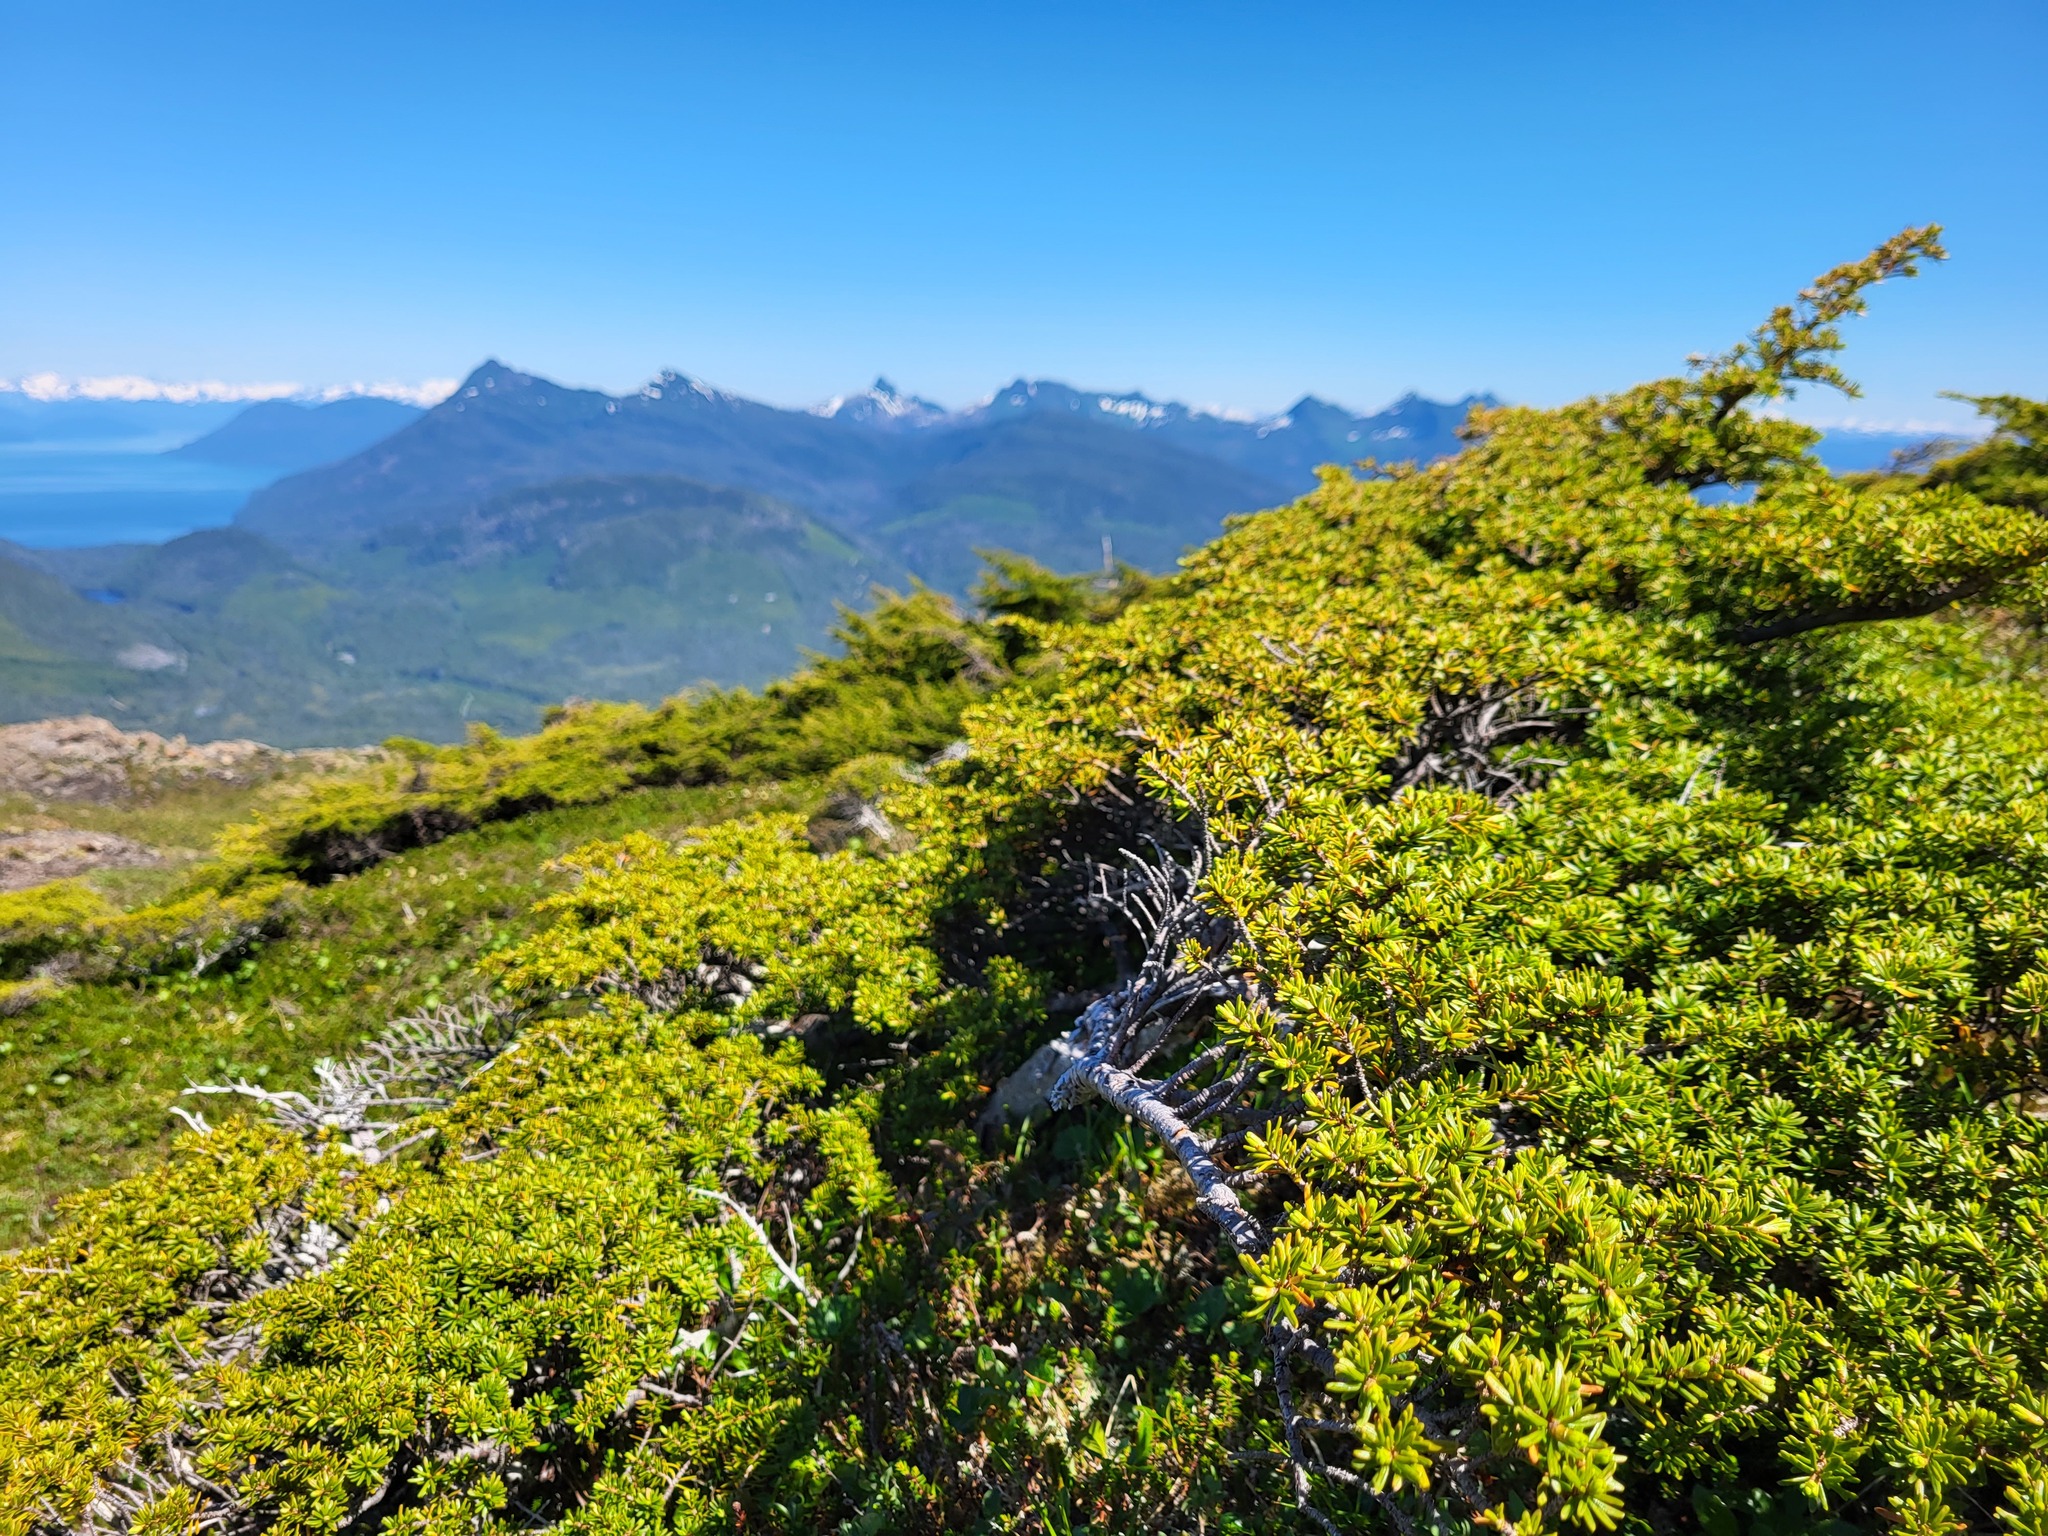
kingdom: Plantae
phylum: Tracheophyta
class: Pinopsida
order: Pinales
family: Pinaceae
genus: Tsuga
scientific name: Tsuga mertensiana
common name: Mountain hemlock
